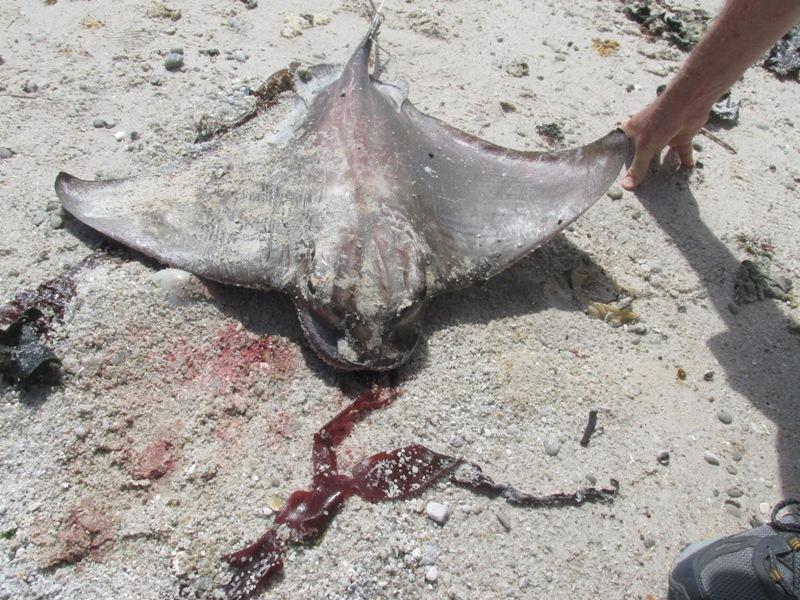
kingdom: Animalia
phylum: Chordata
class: Elasmobranchii
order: Myliobatiformes
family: Myliobatidae
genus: Myliobatis
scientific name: Myliobatis aquila
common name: Eagle ray
